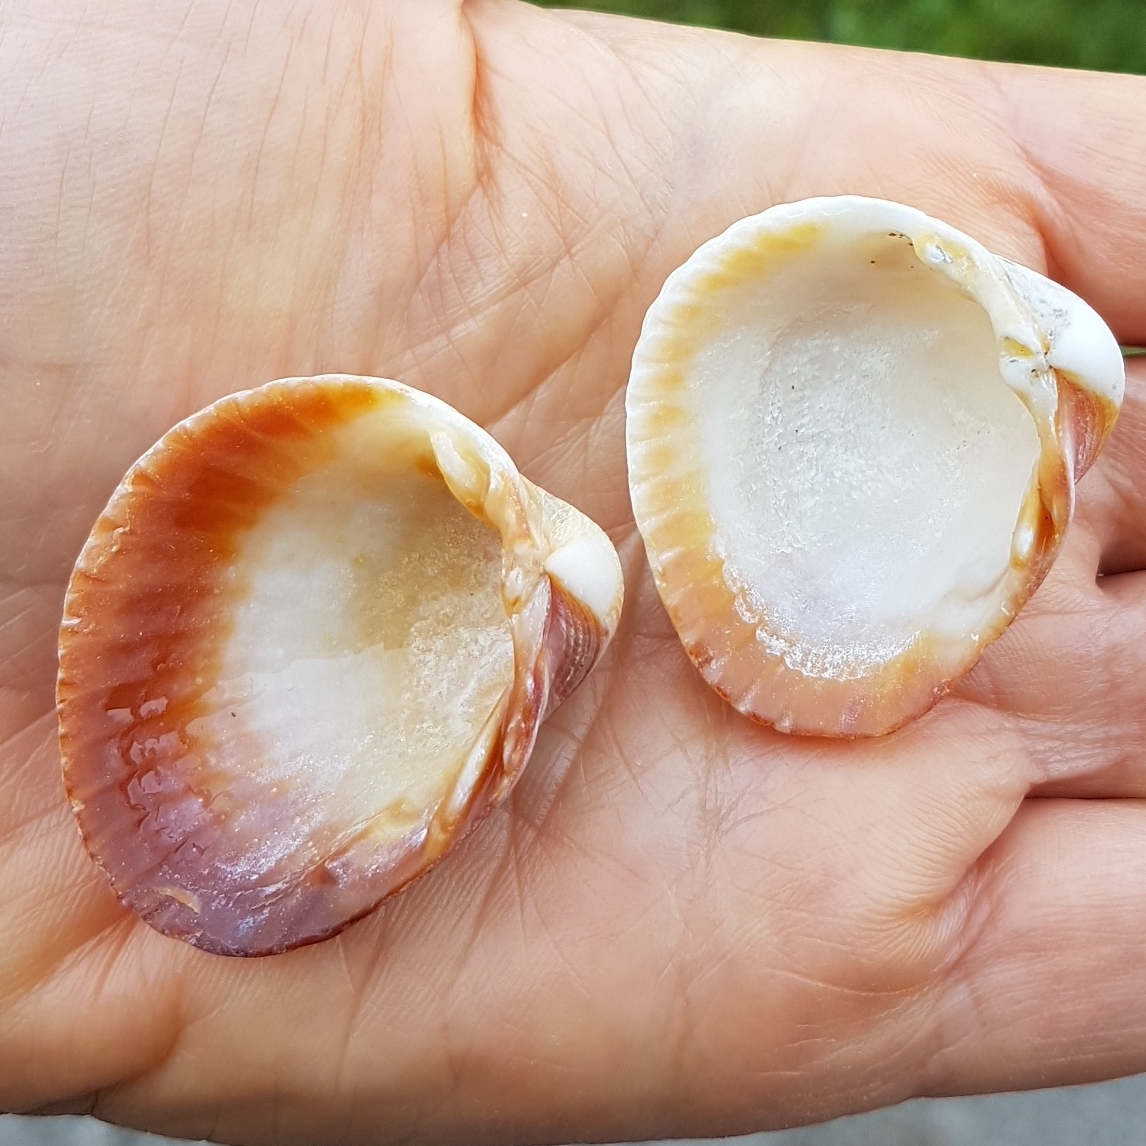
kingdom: Animalia
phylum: Mollusca
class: Bivalvia
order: Cardiida
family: Cardiidae
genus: Cerastoderma
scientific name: Cerastoderma glaucum
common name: Lagoon cockle
